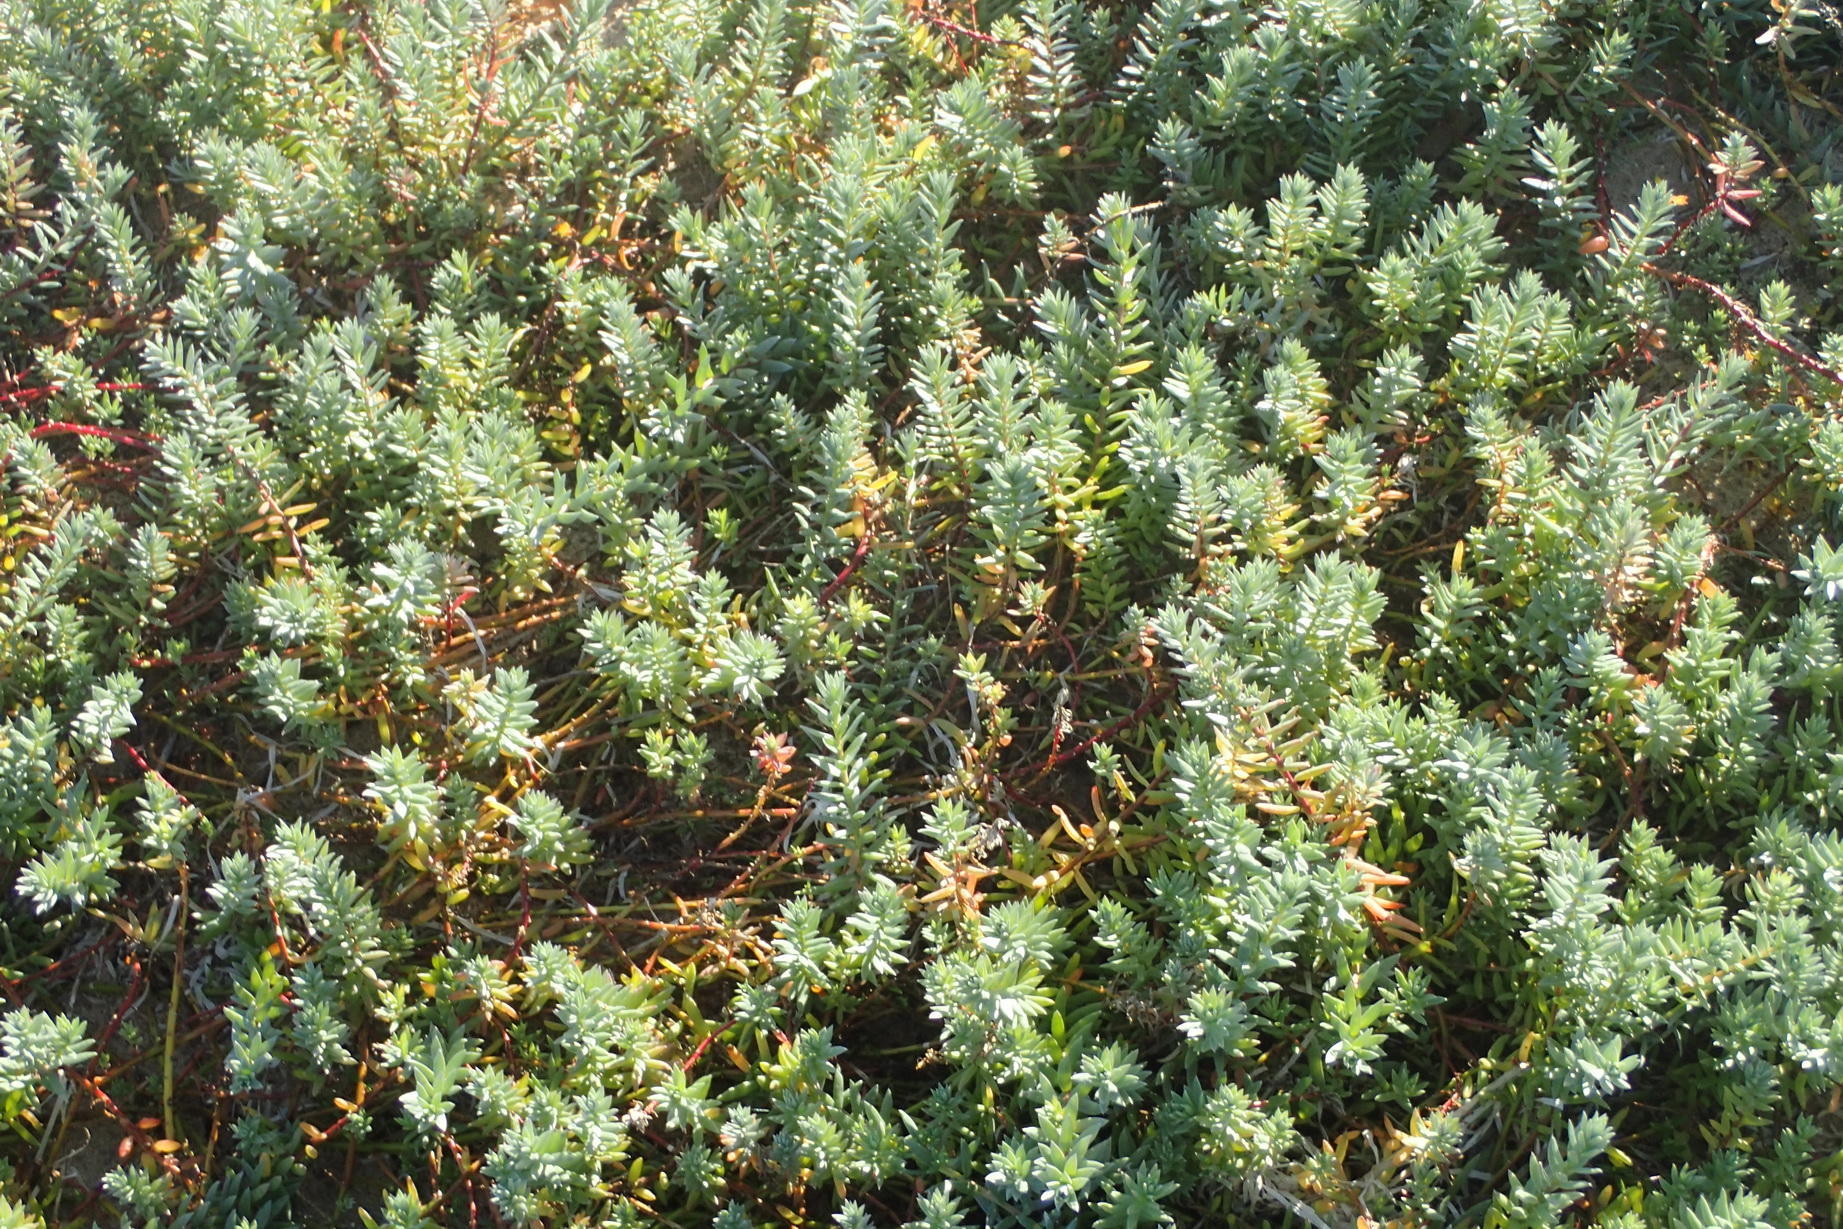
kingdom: Plantae
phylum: Tracheophyta
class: Magnoliopsida
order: Caryophyllales
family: Amaranthaceae
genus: Chenolea
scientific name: Chenolea diffusa
